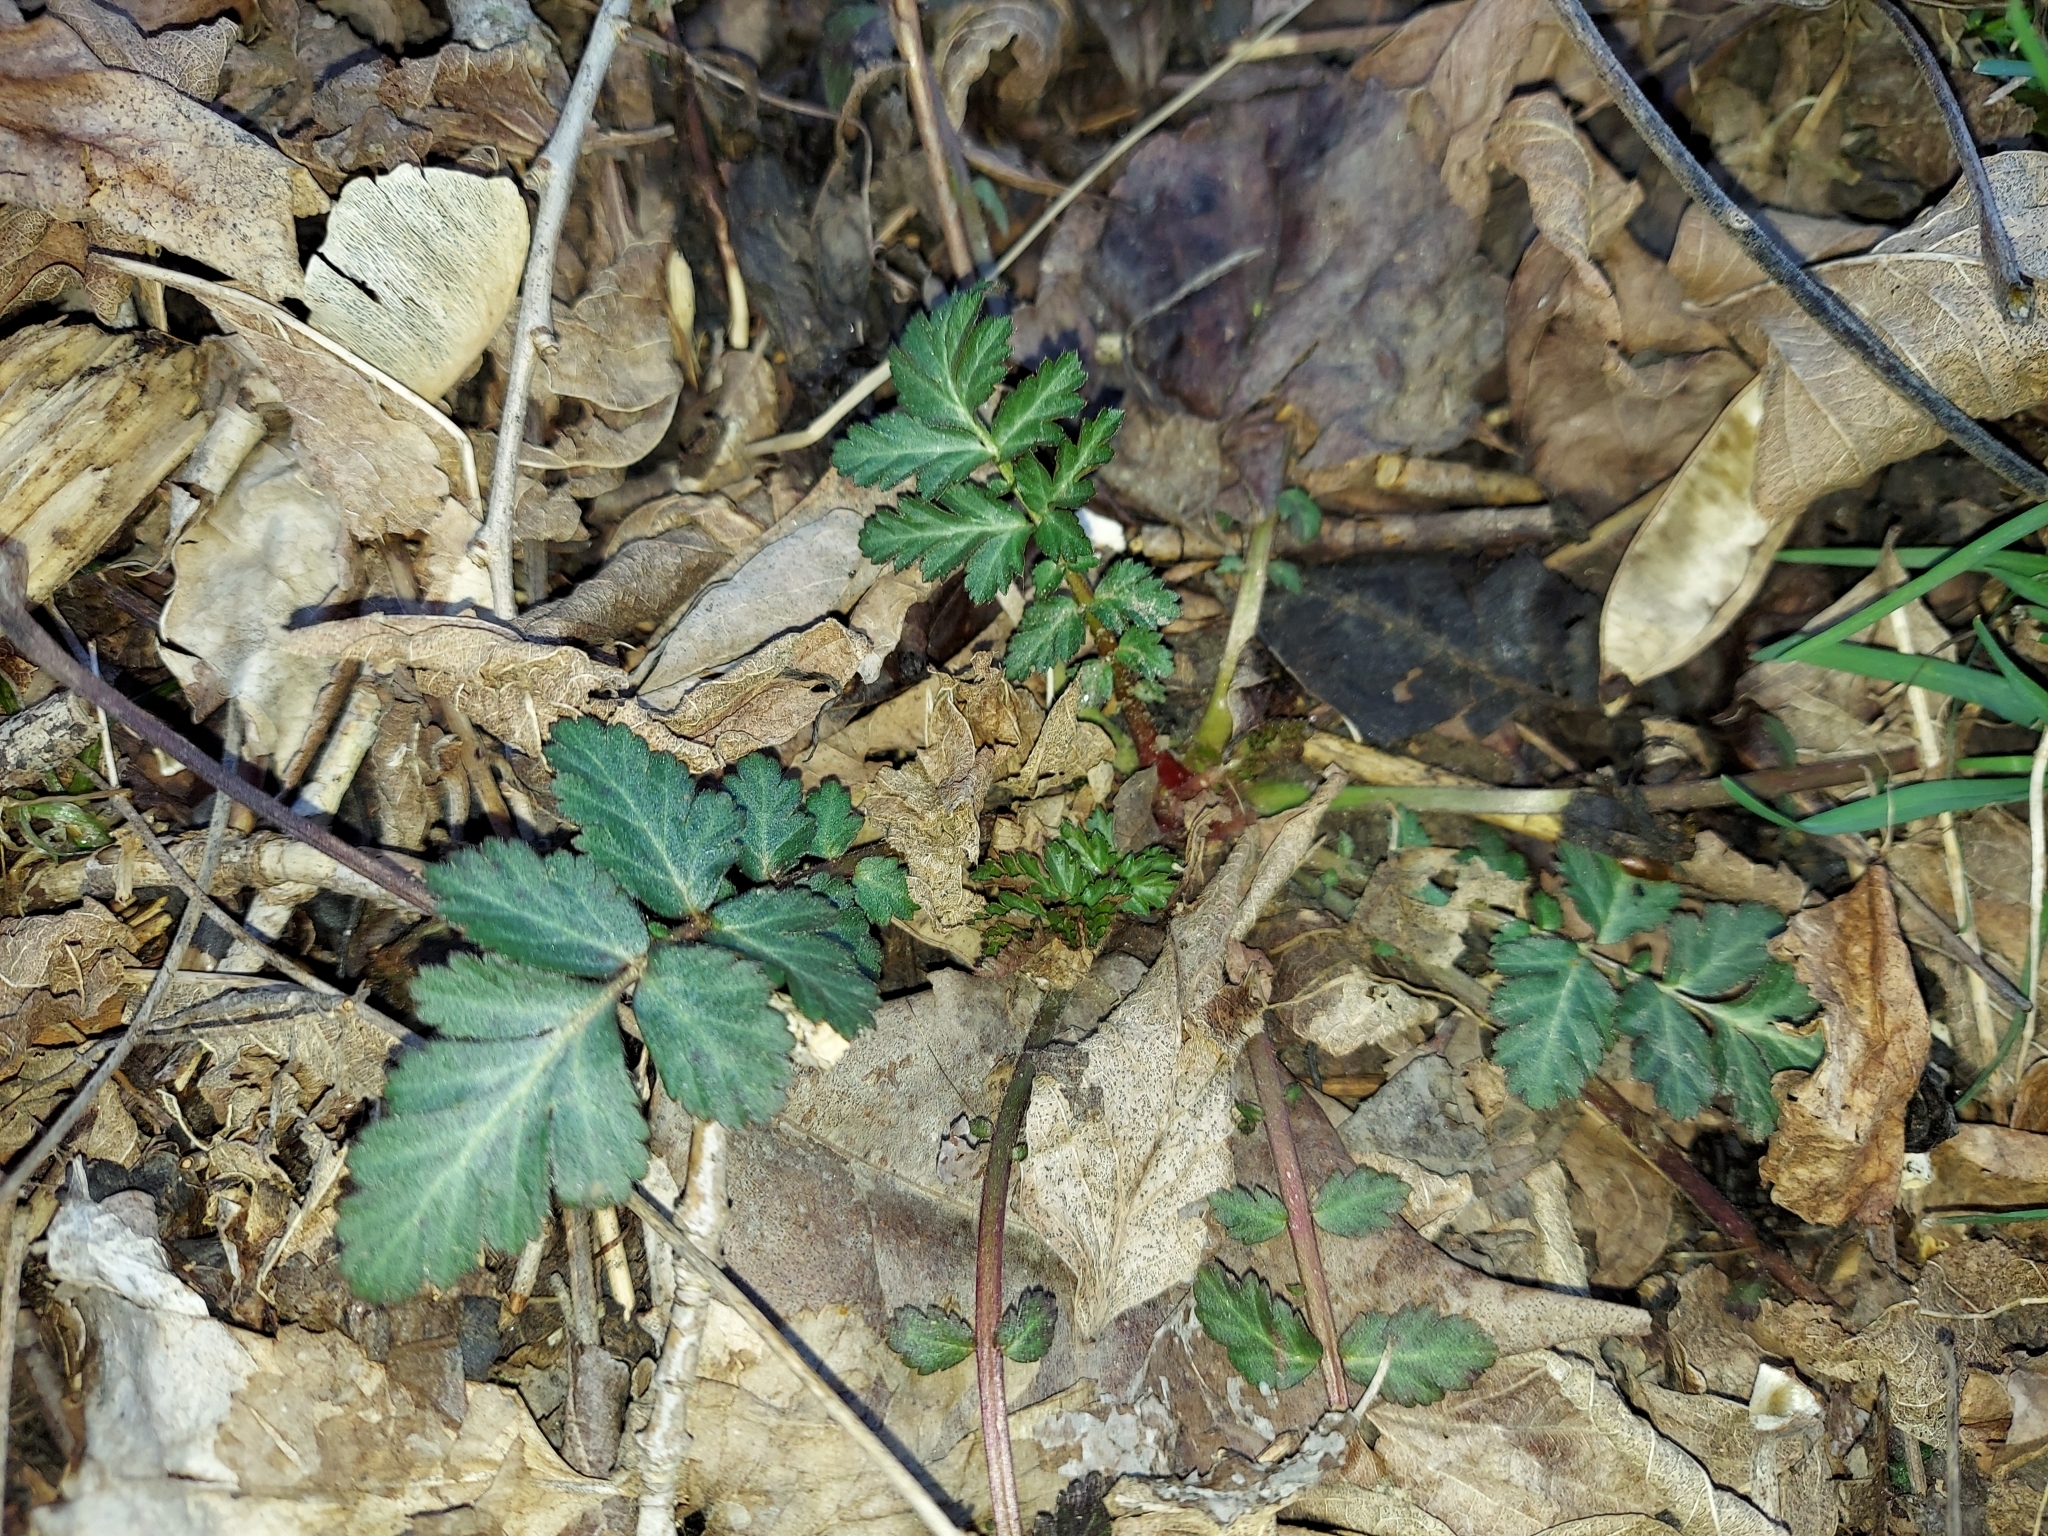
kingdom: Plantae
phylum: Tracheophyta
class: Magnoliopsida
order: Rosales
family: Rosaceae
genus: Geum
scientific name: Geum canadense
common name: White avens
